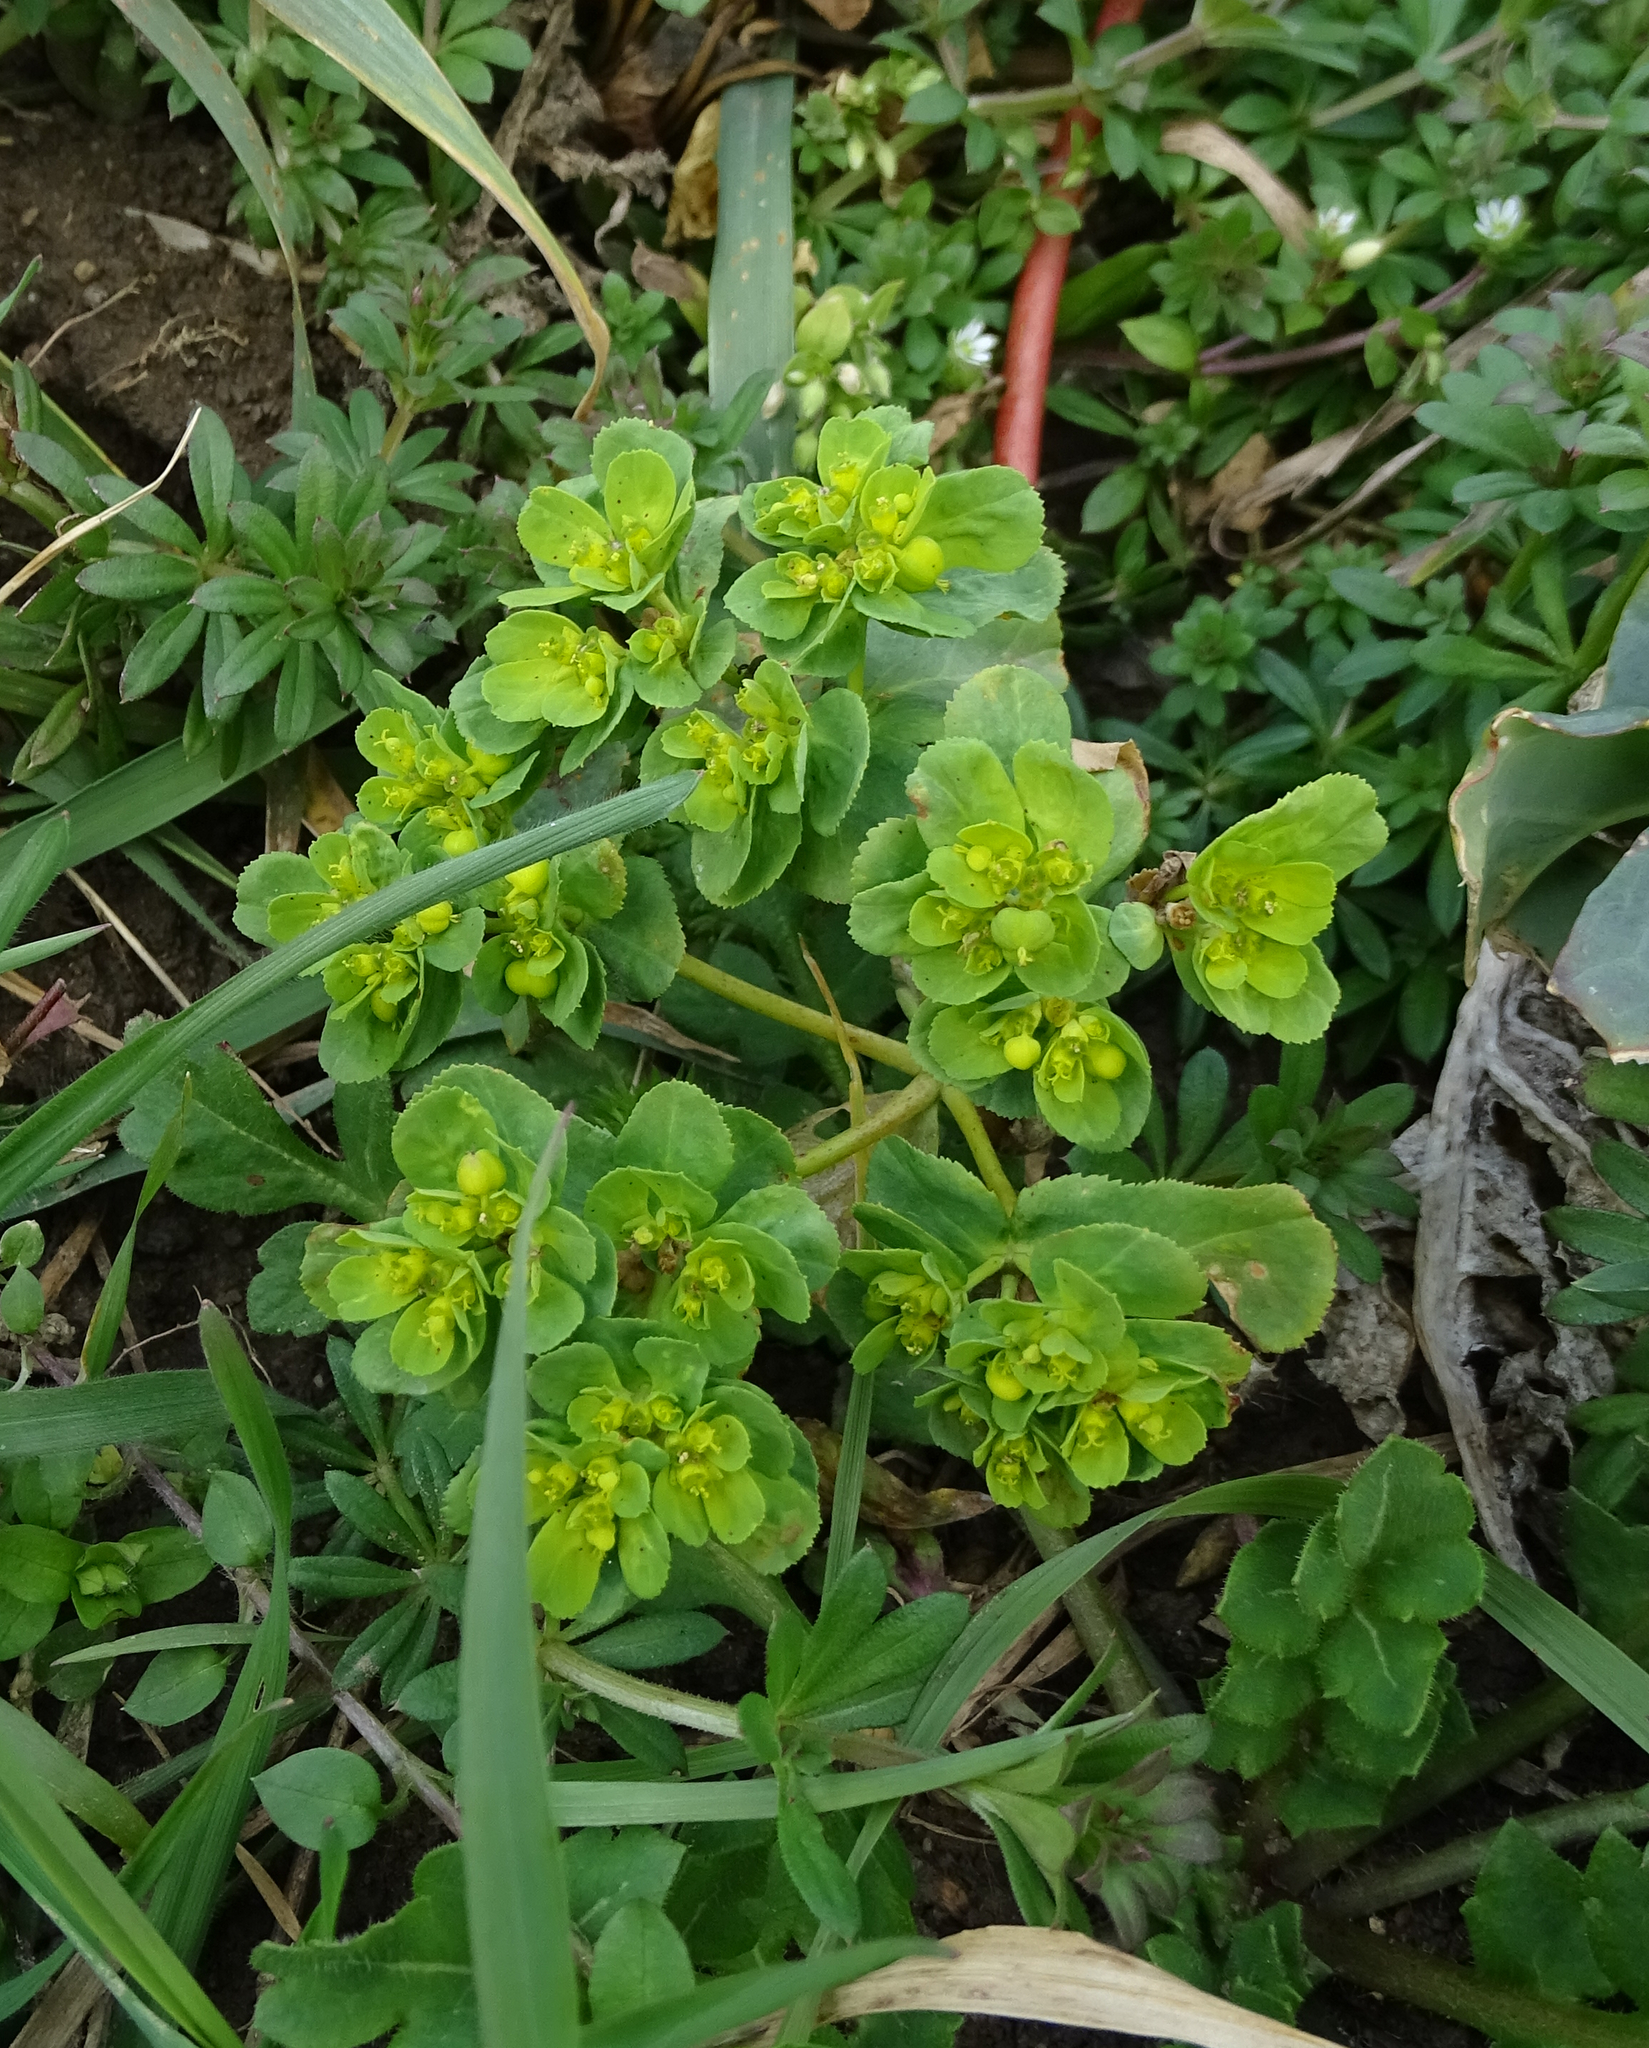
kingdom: Plantae
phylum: Tracheophyta
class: Magnoliopsida
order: Malpighiales
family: Euphorbiaceae
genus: Euphorbia
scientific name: Euphorbia helioscopia
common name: Sun spurge
